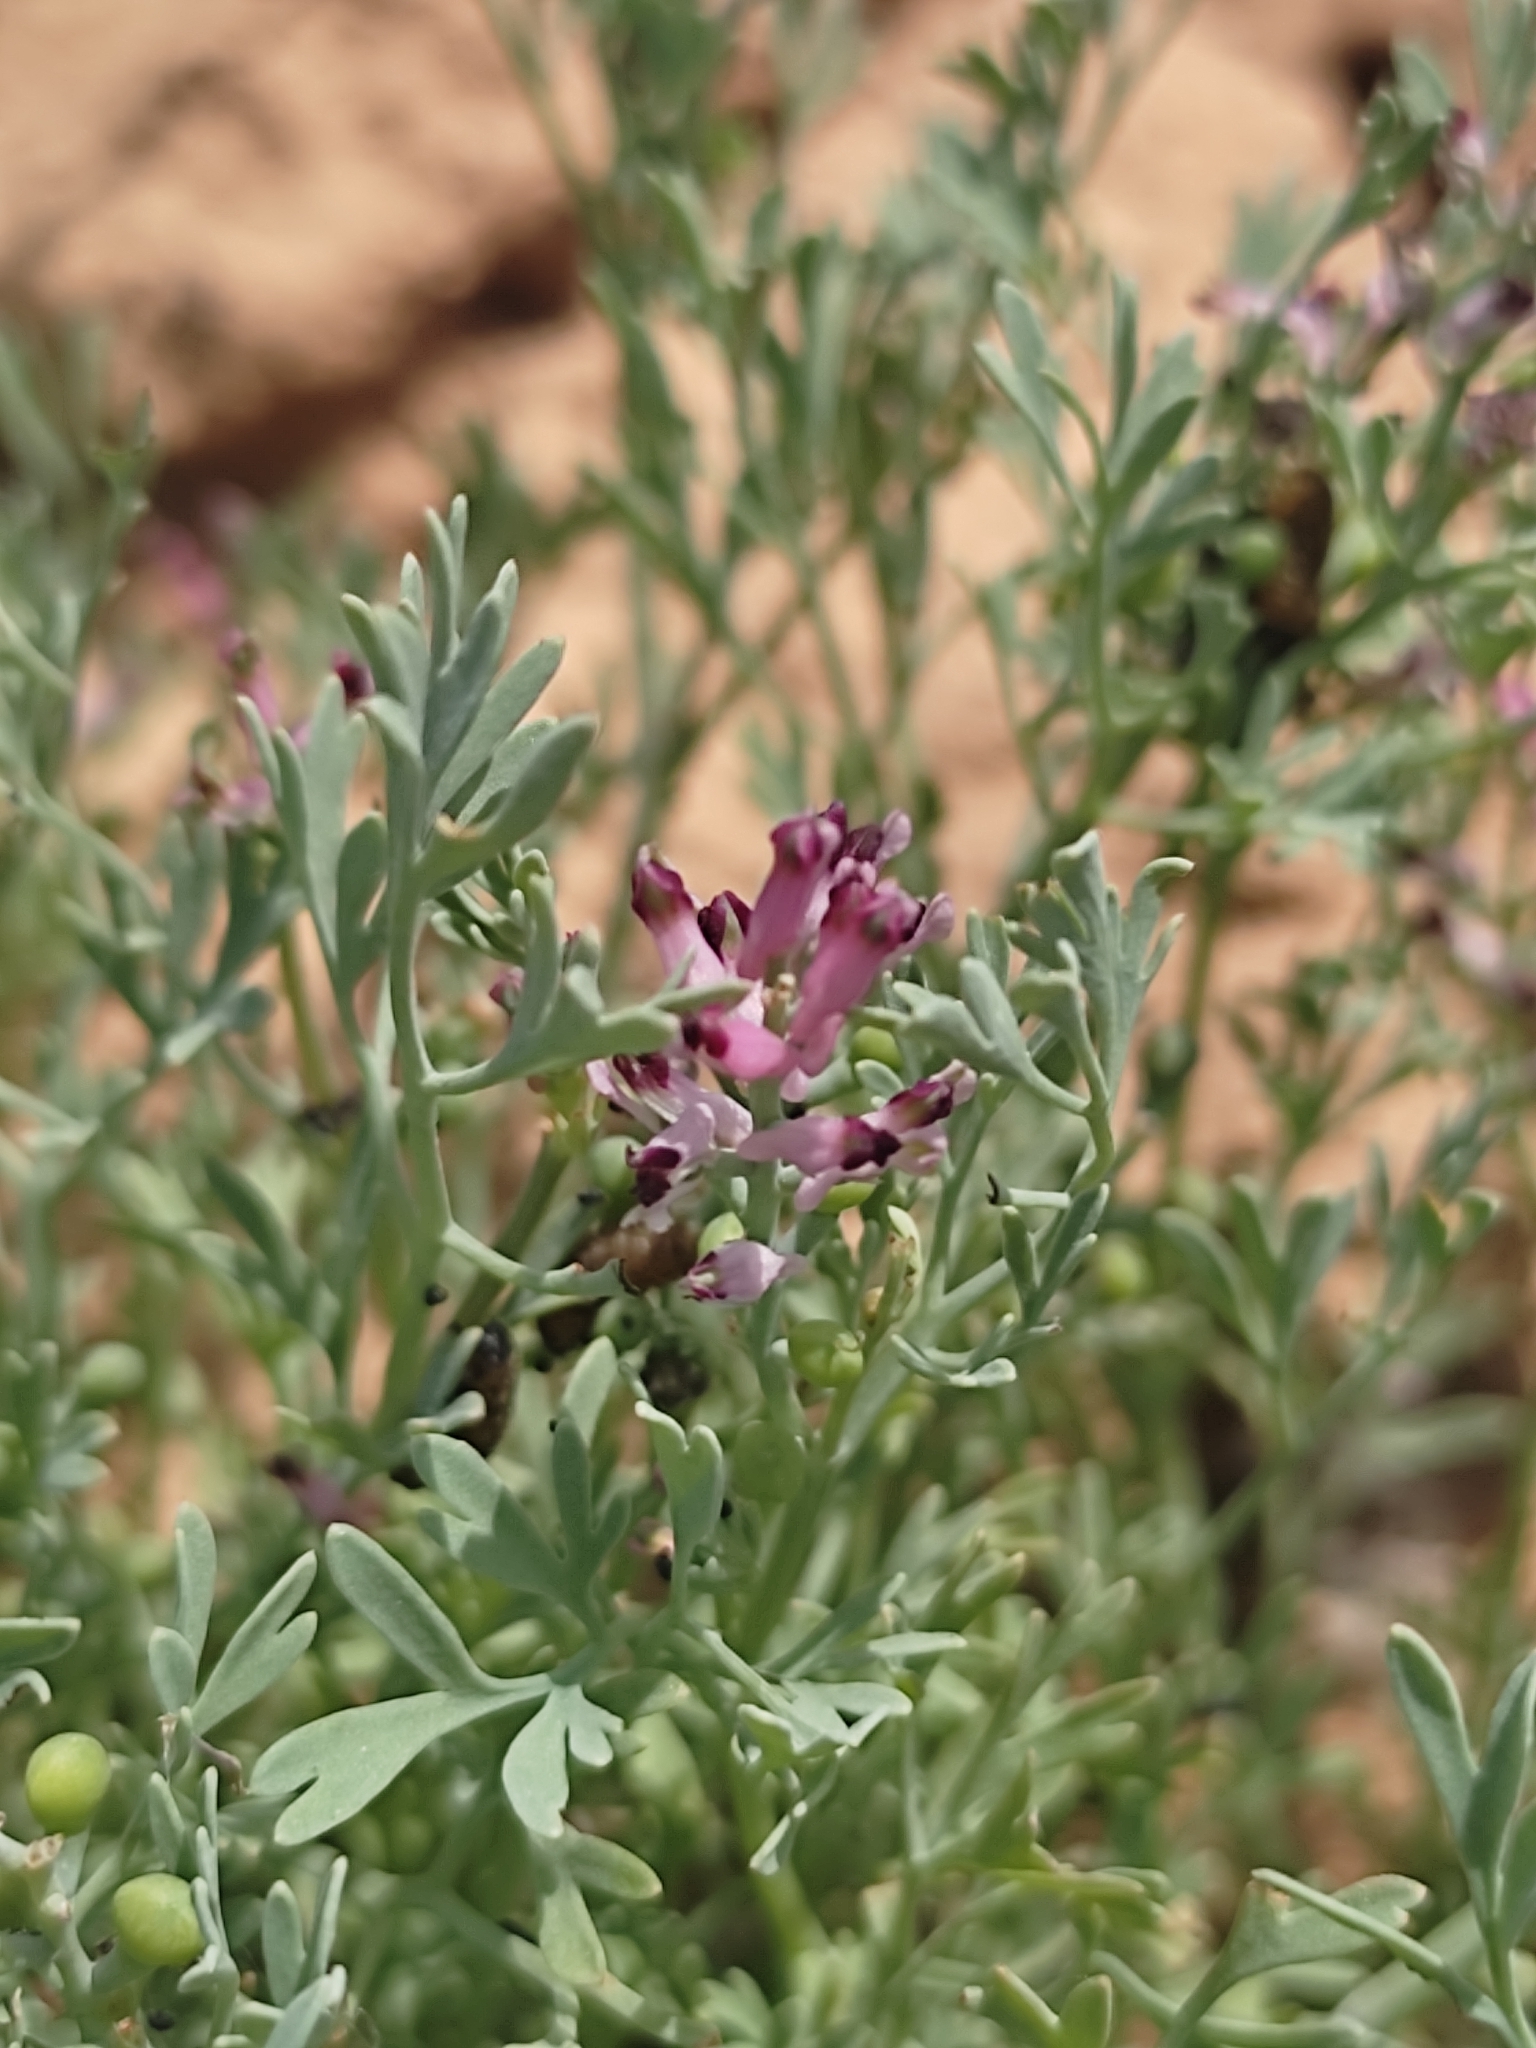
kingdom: Plantae
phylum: Tracheophyta
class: Magnoliopsida
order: Ranunculales
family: Papaveraceae
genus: Fumaria
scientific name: Fumaria schleicheri
